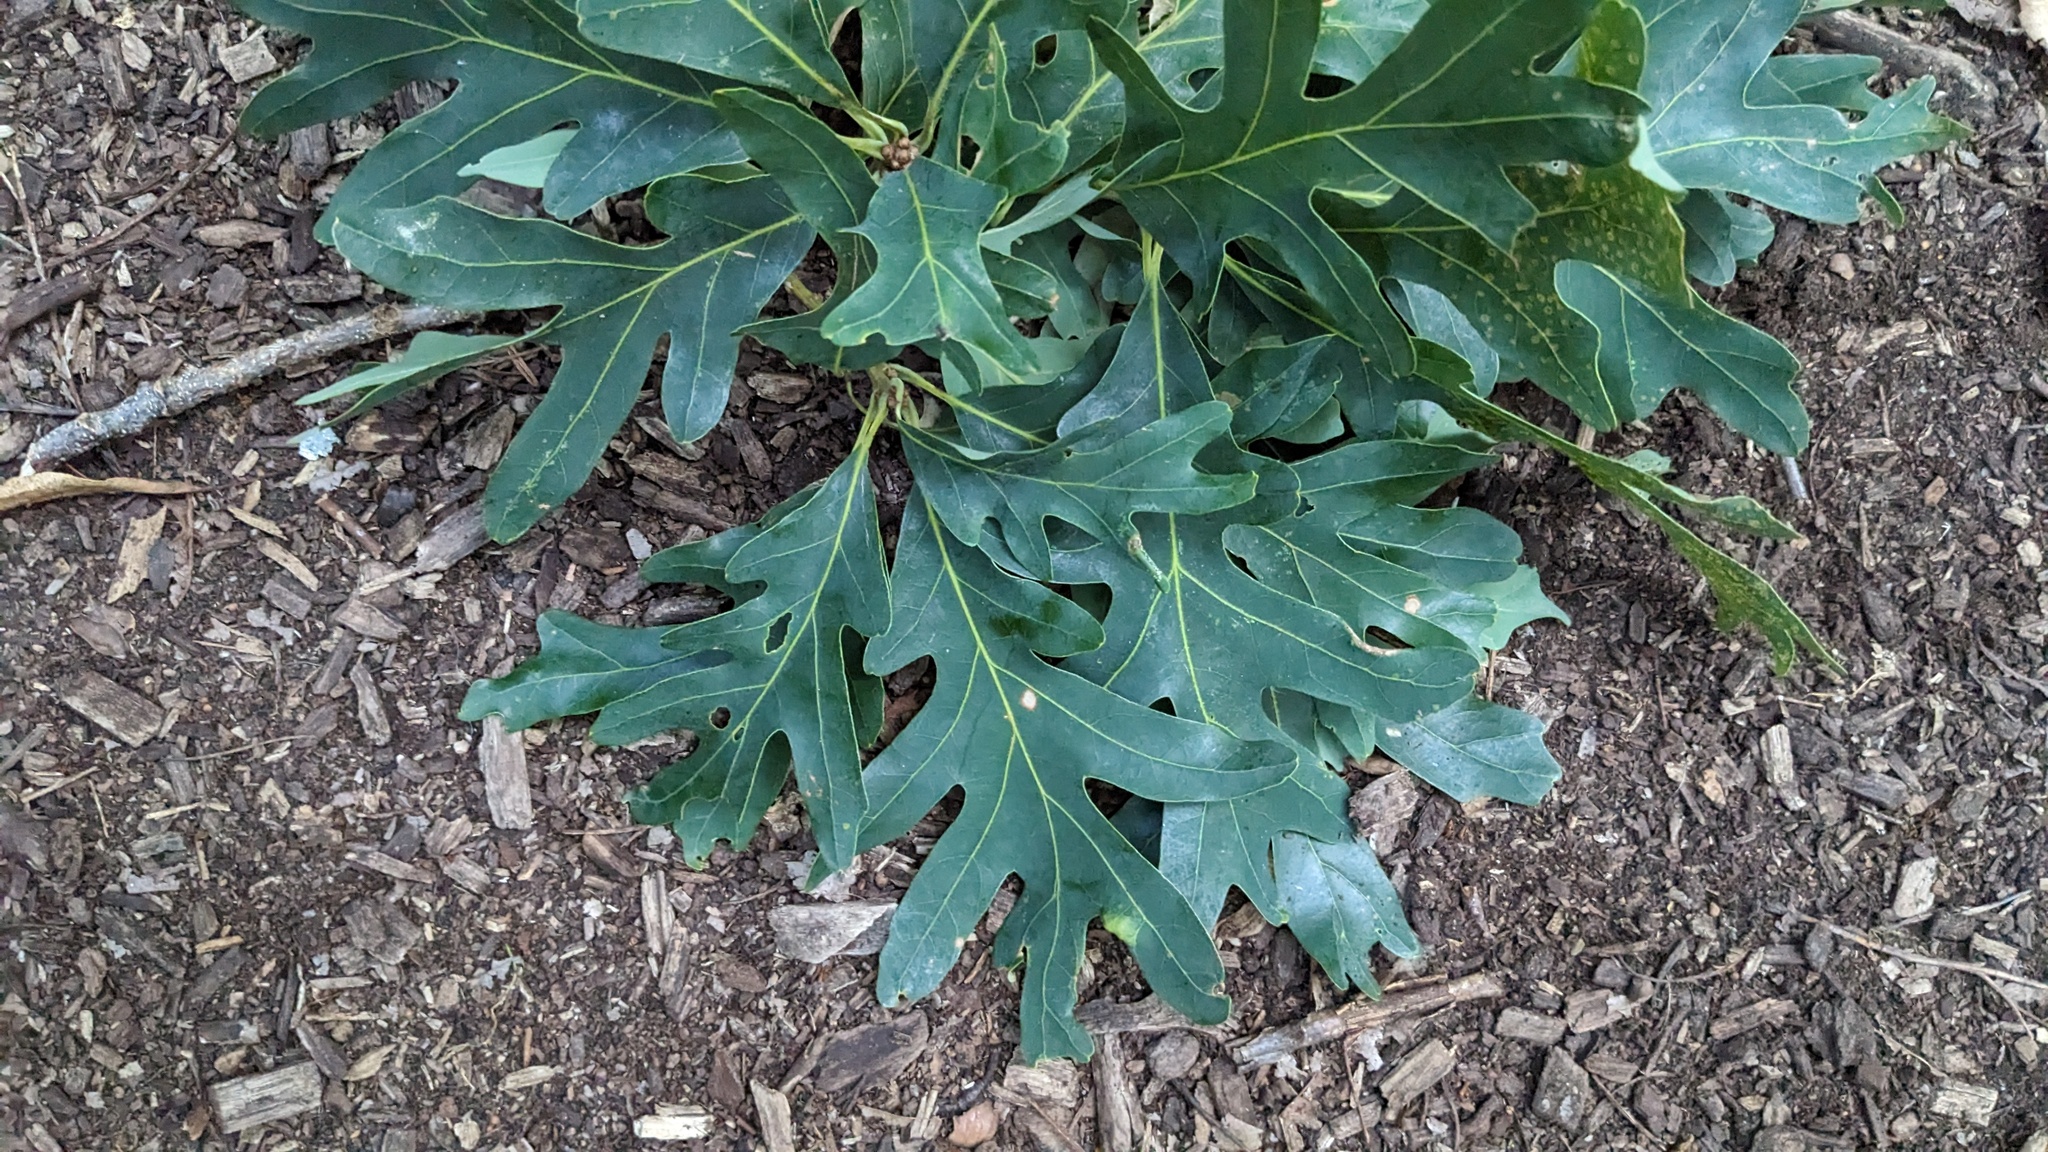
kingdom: Plantae
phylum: Tracheophyta
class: Magnoliopsida
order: Fagales
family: Fagaceae
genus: Quercus
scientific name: Quercus alba
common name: White oak
